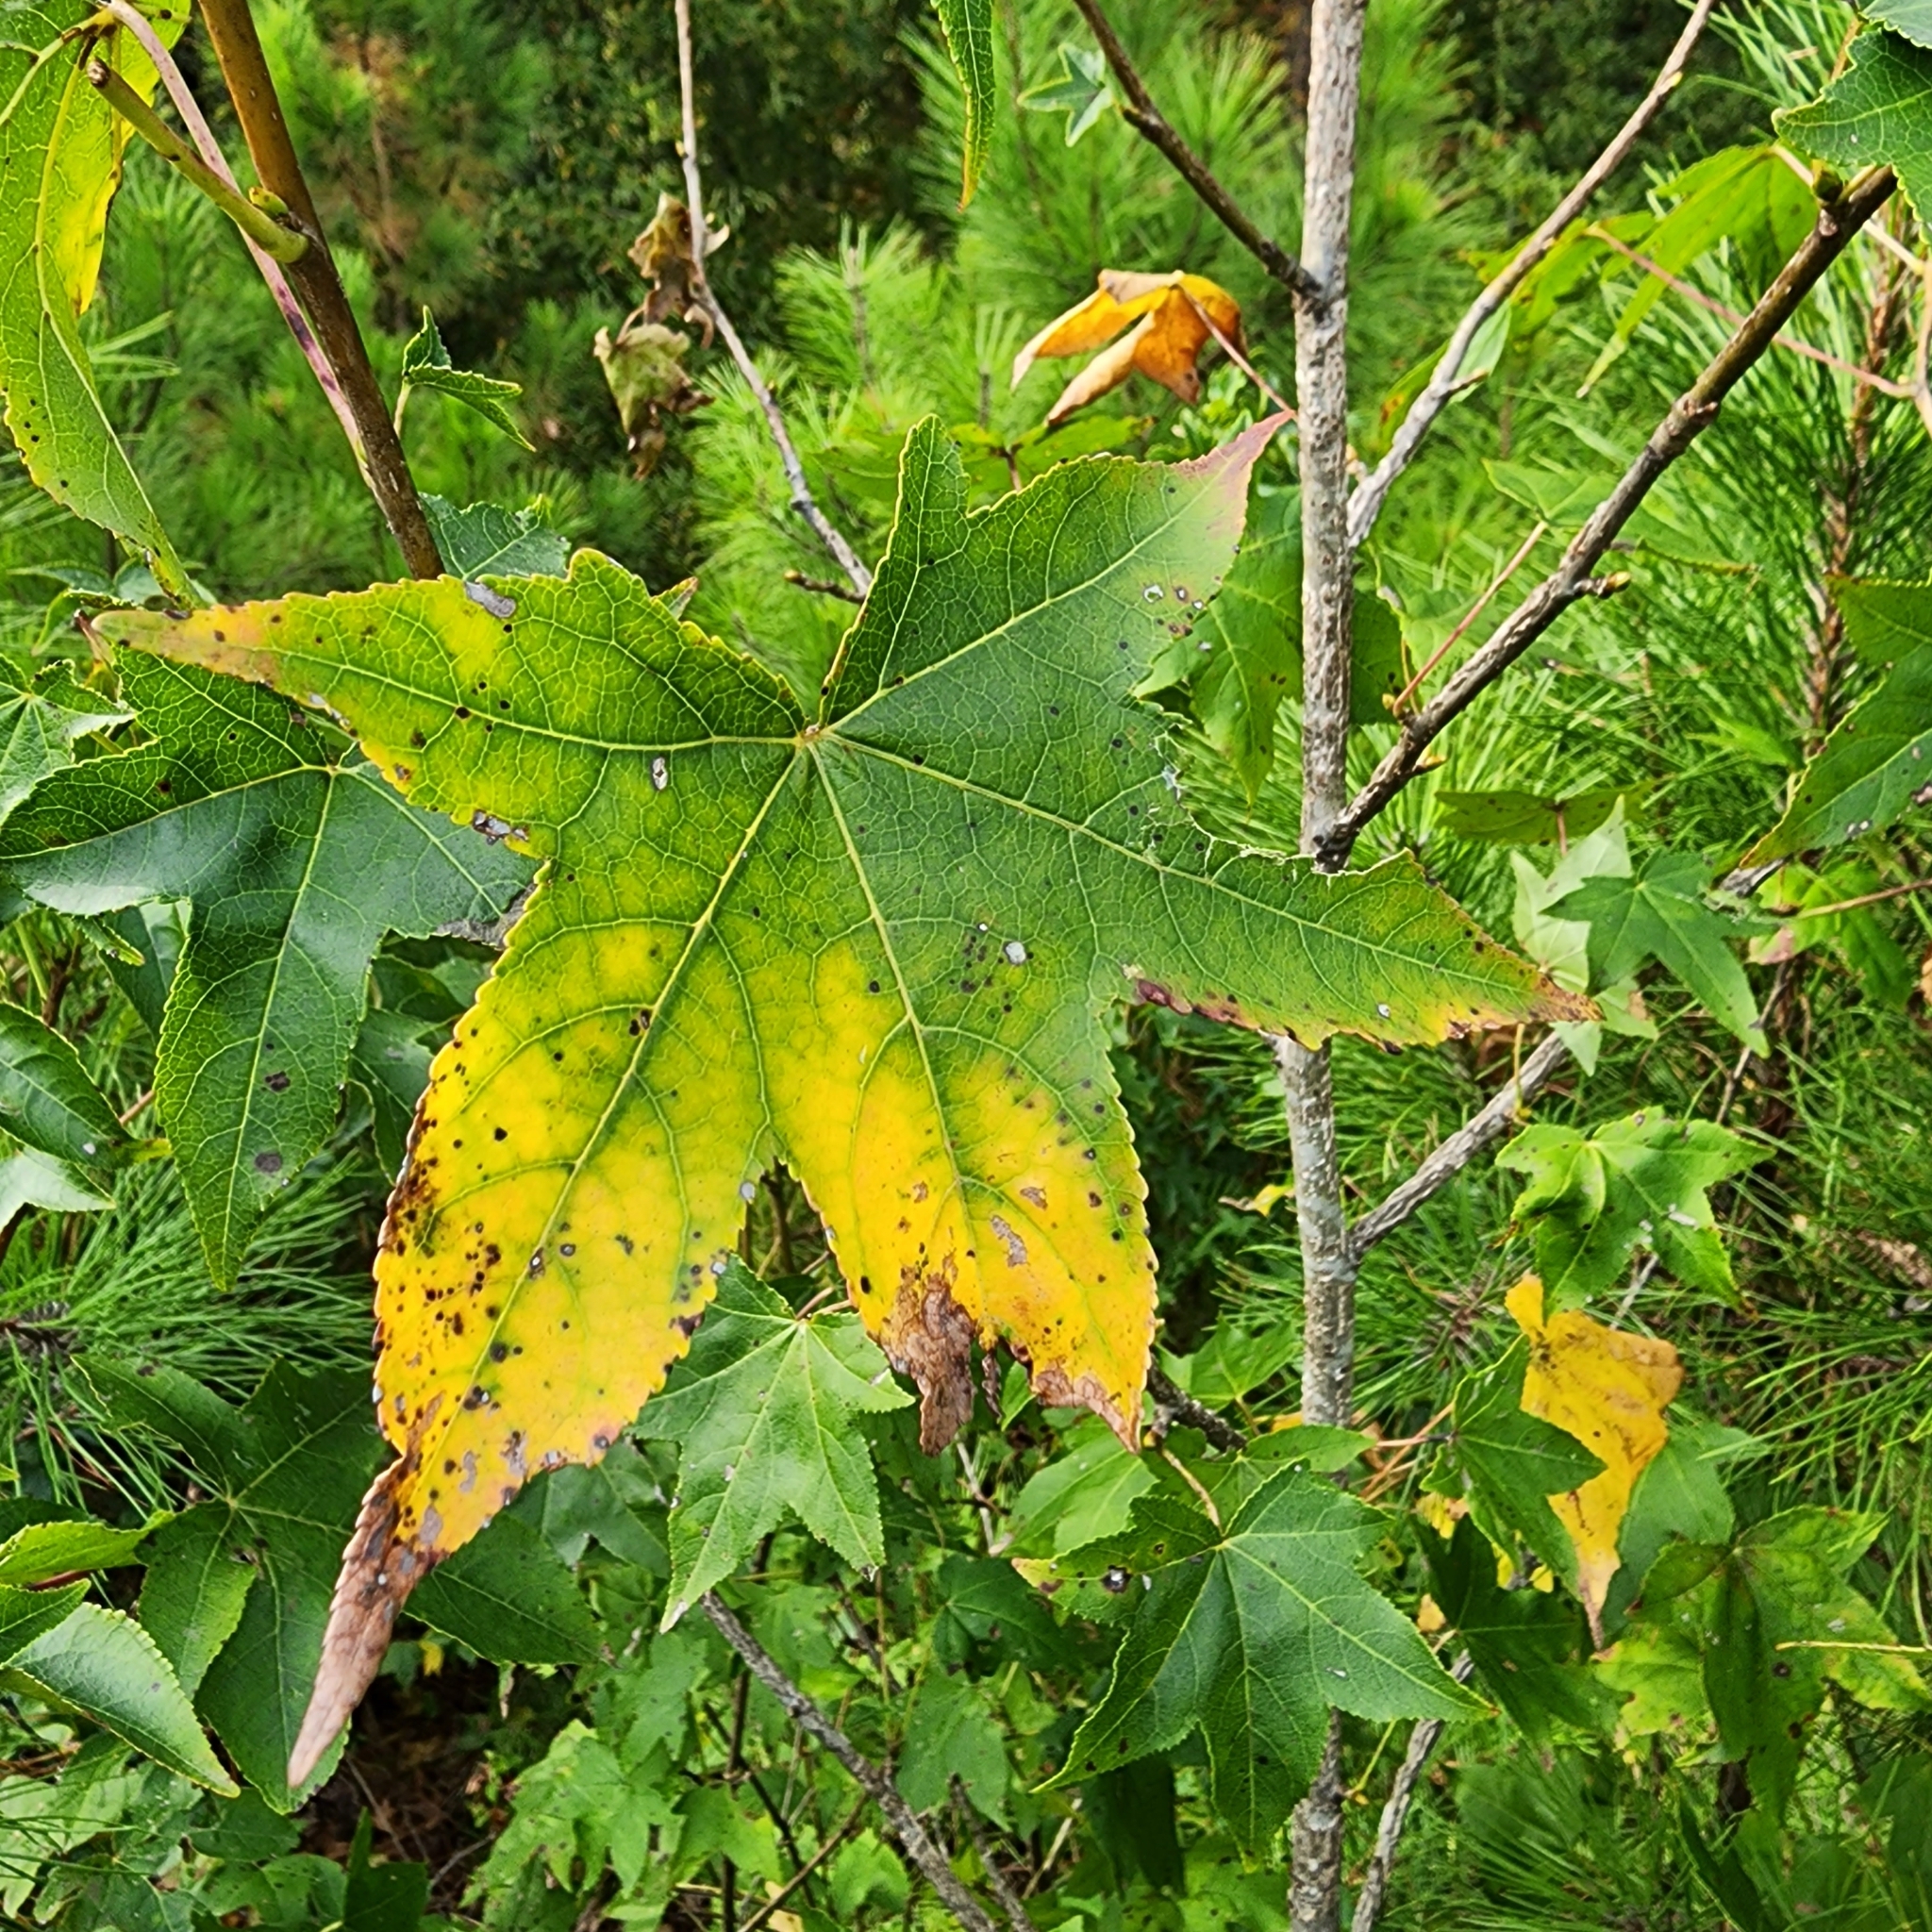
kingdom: Plantae
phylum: Tracheophyta
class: Magnoliopsida
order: Saxifragales
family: Altingiaceae
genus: Liquidambar
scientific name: Liquidambar styraciflua
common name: Sweet gum
